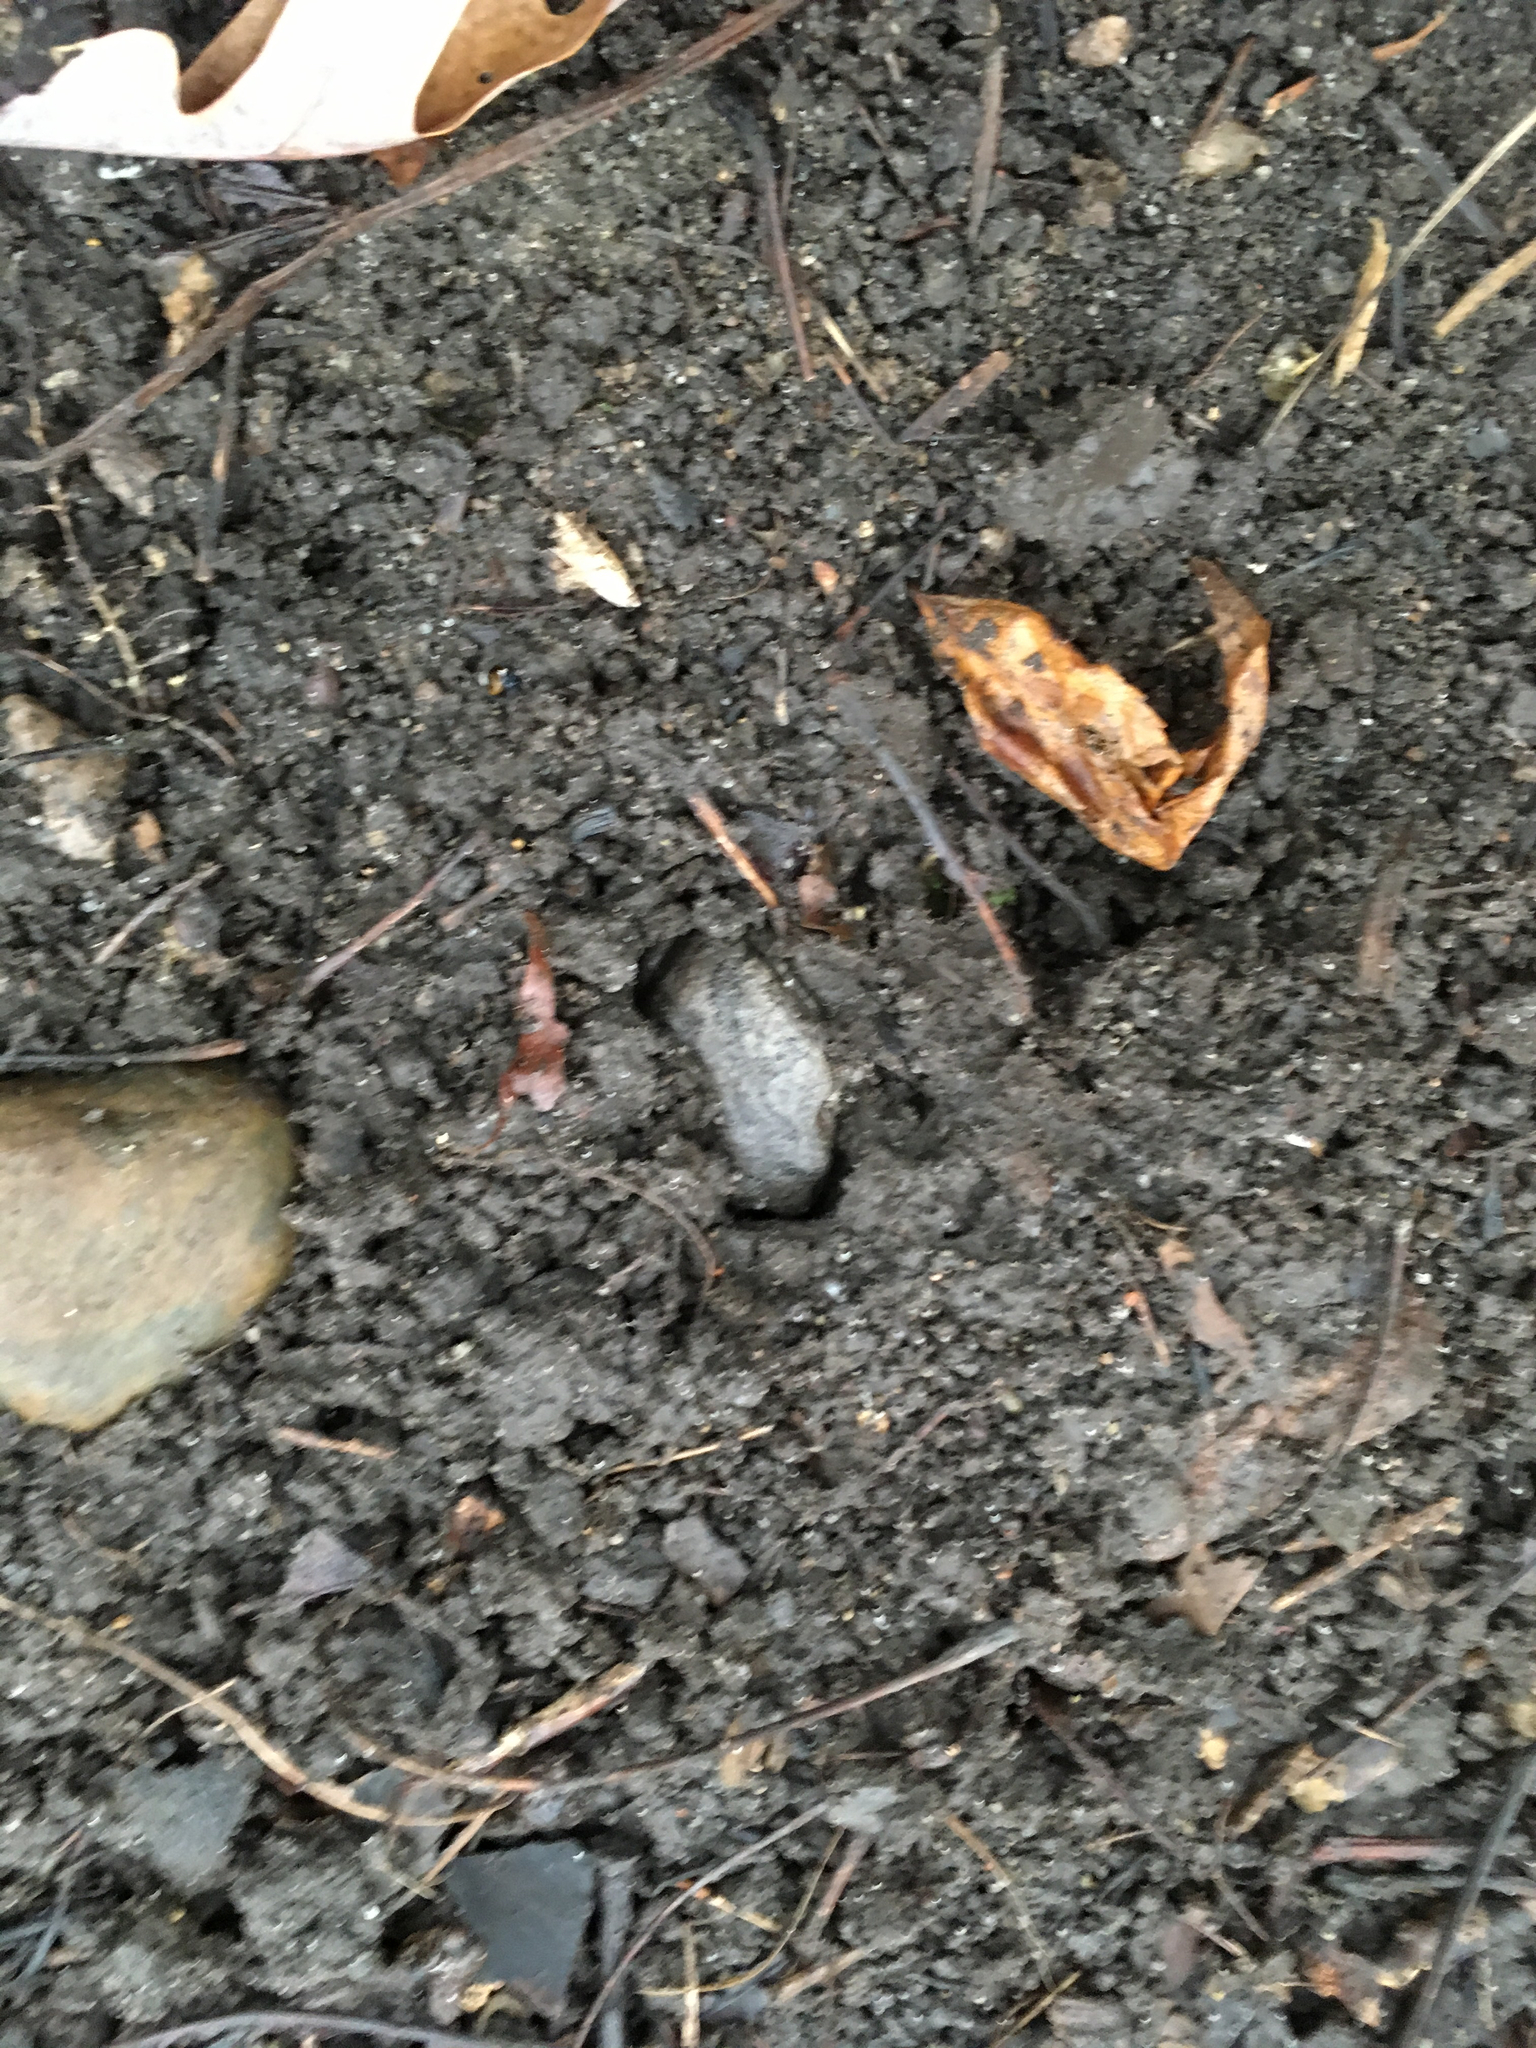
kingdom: Animalia
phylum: Chordata
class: Amphibia
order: Anura
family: Hylidae
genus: Hyla
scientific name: Hyla
